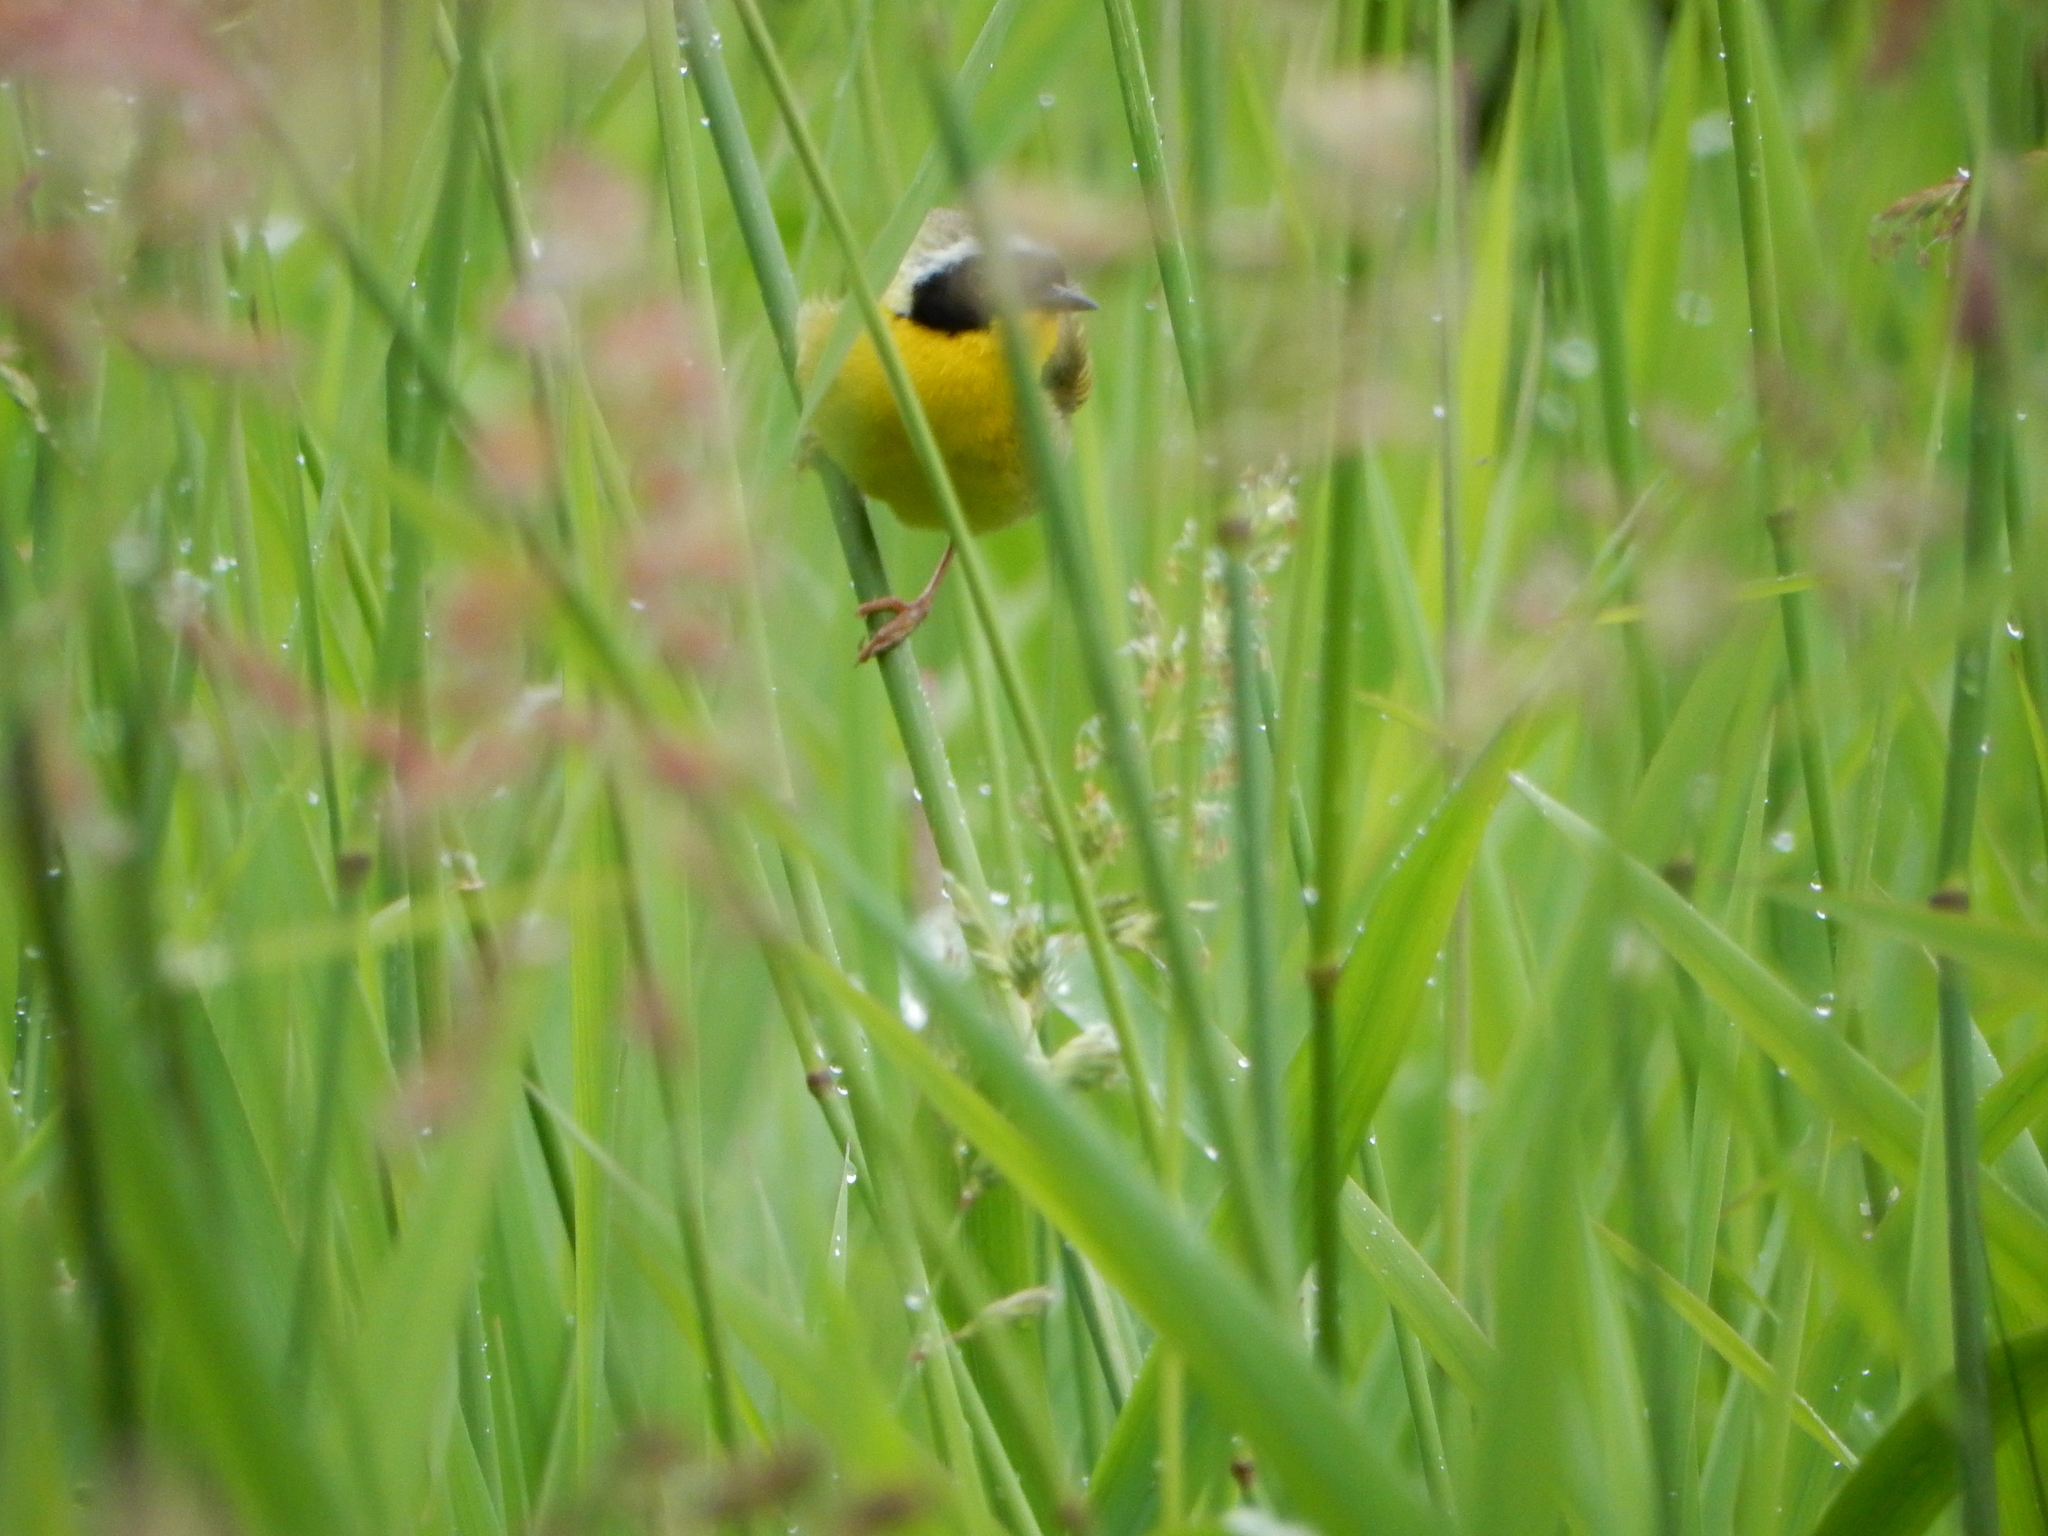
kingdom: Animalia
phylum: Chordata
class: Aves
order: Passeriformes
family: Parulidae
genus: Geothlypis
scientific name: Geothlypis trichas
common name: Common yellowthroat
